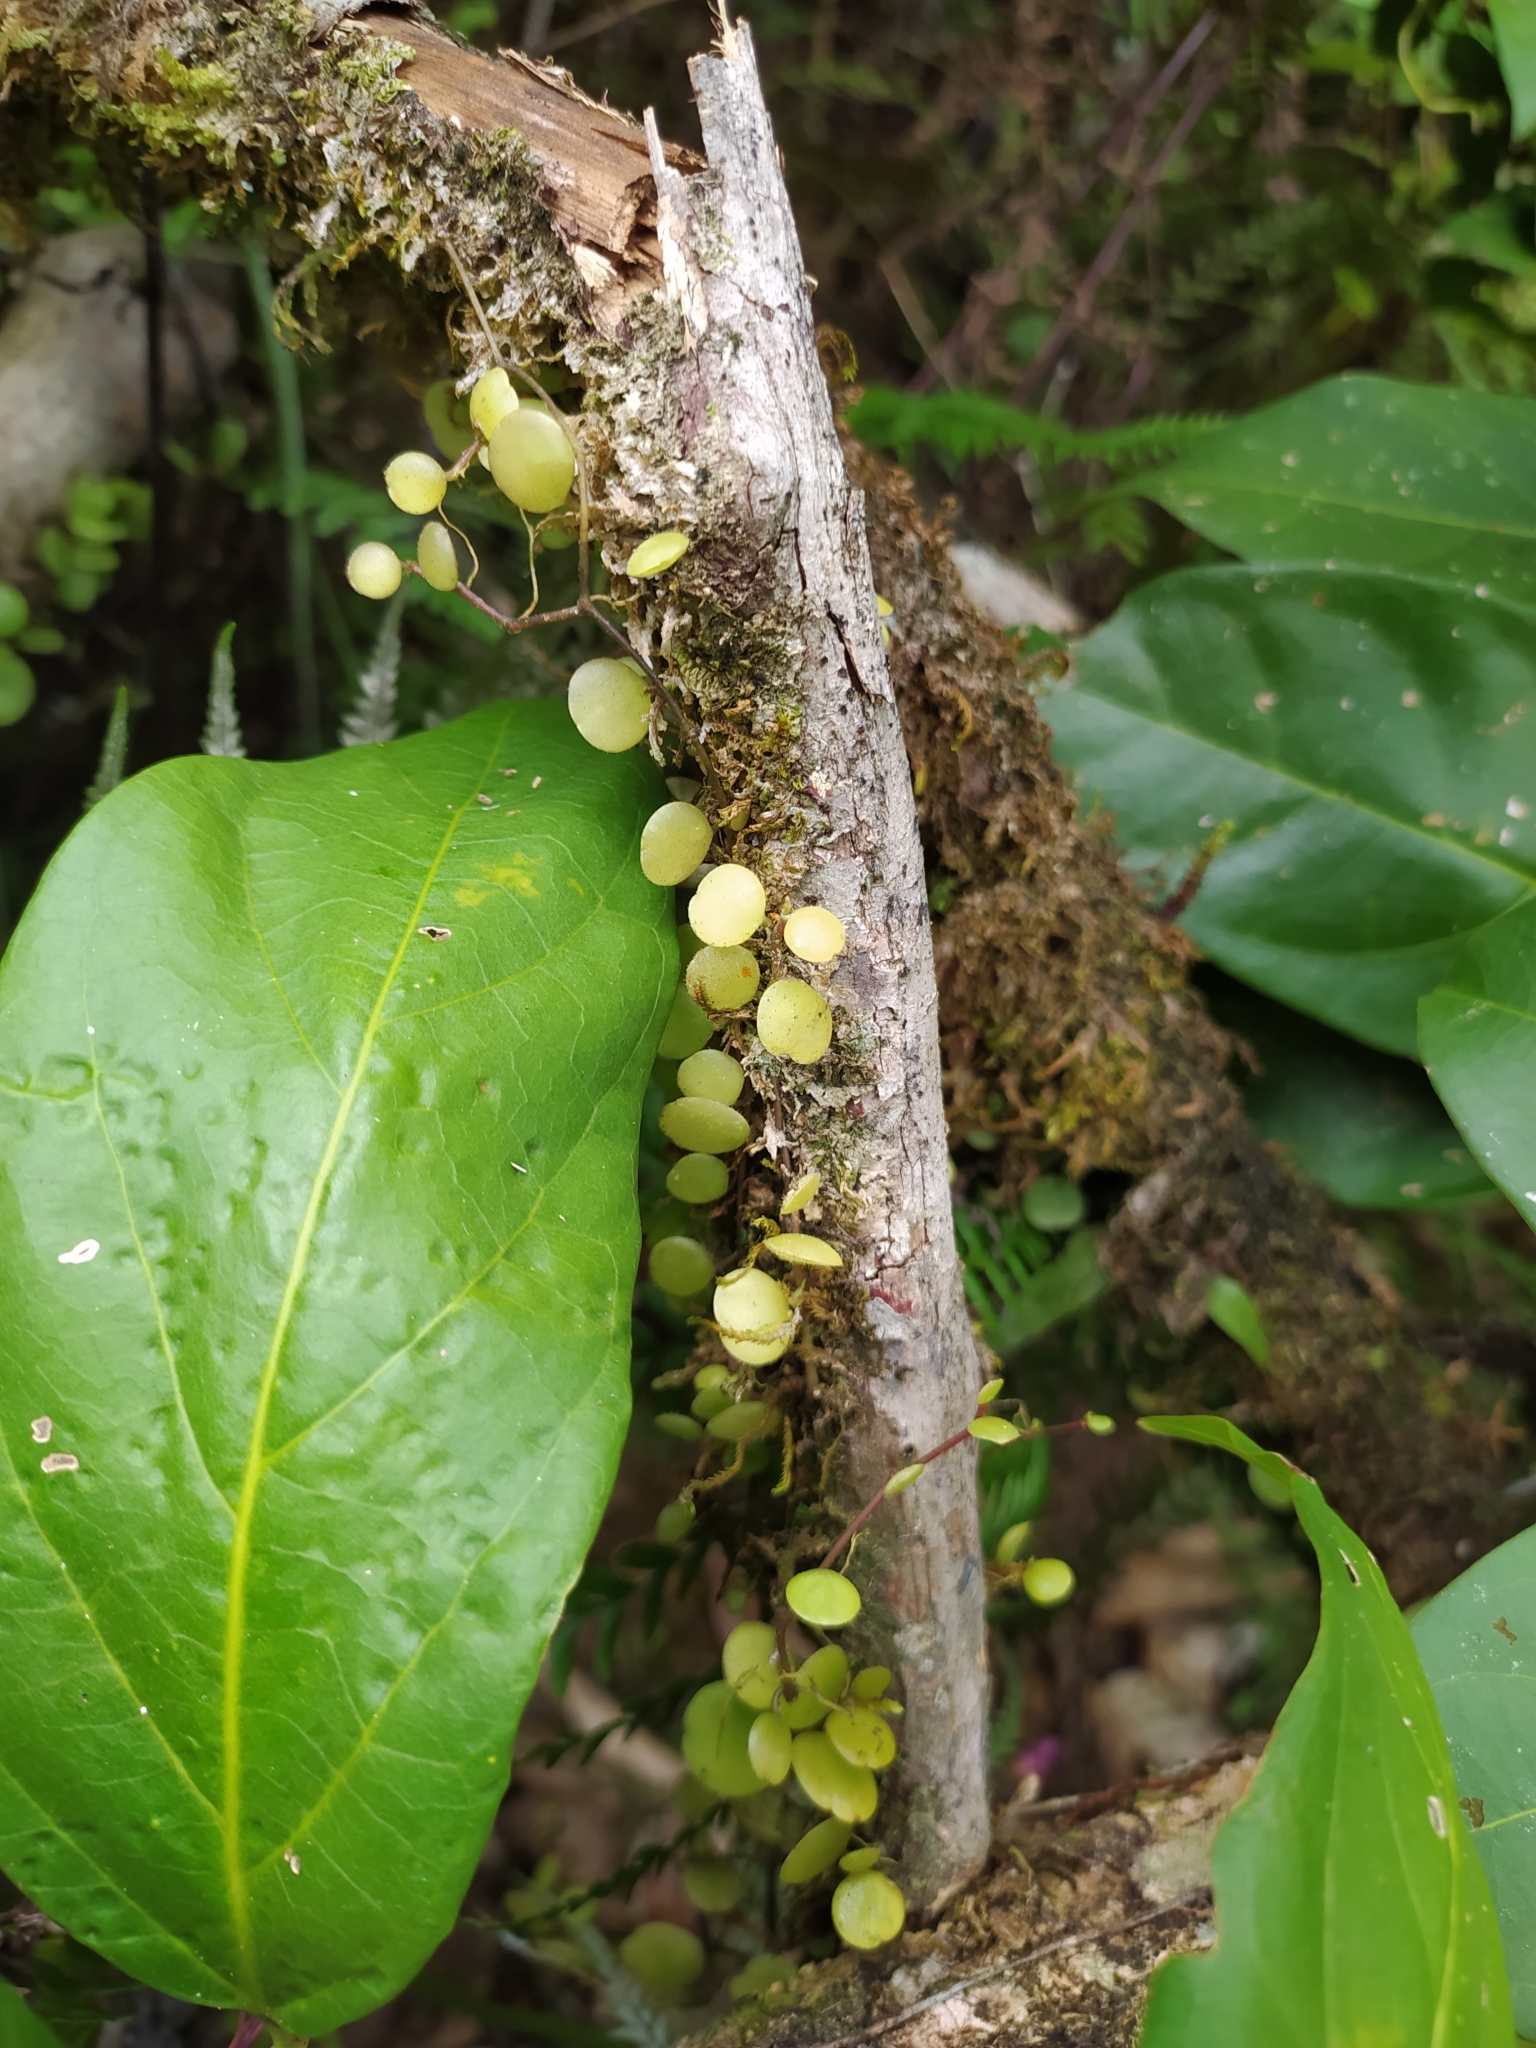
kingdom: Plantae
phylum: Tracheophyta
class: Magnoliopsida
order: Piperales
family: Piperaceae
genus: Peperomia
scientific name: Peperomia rotundifolia
